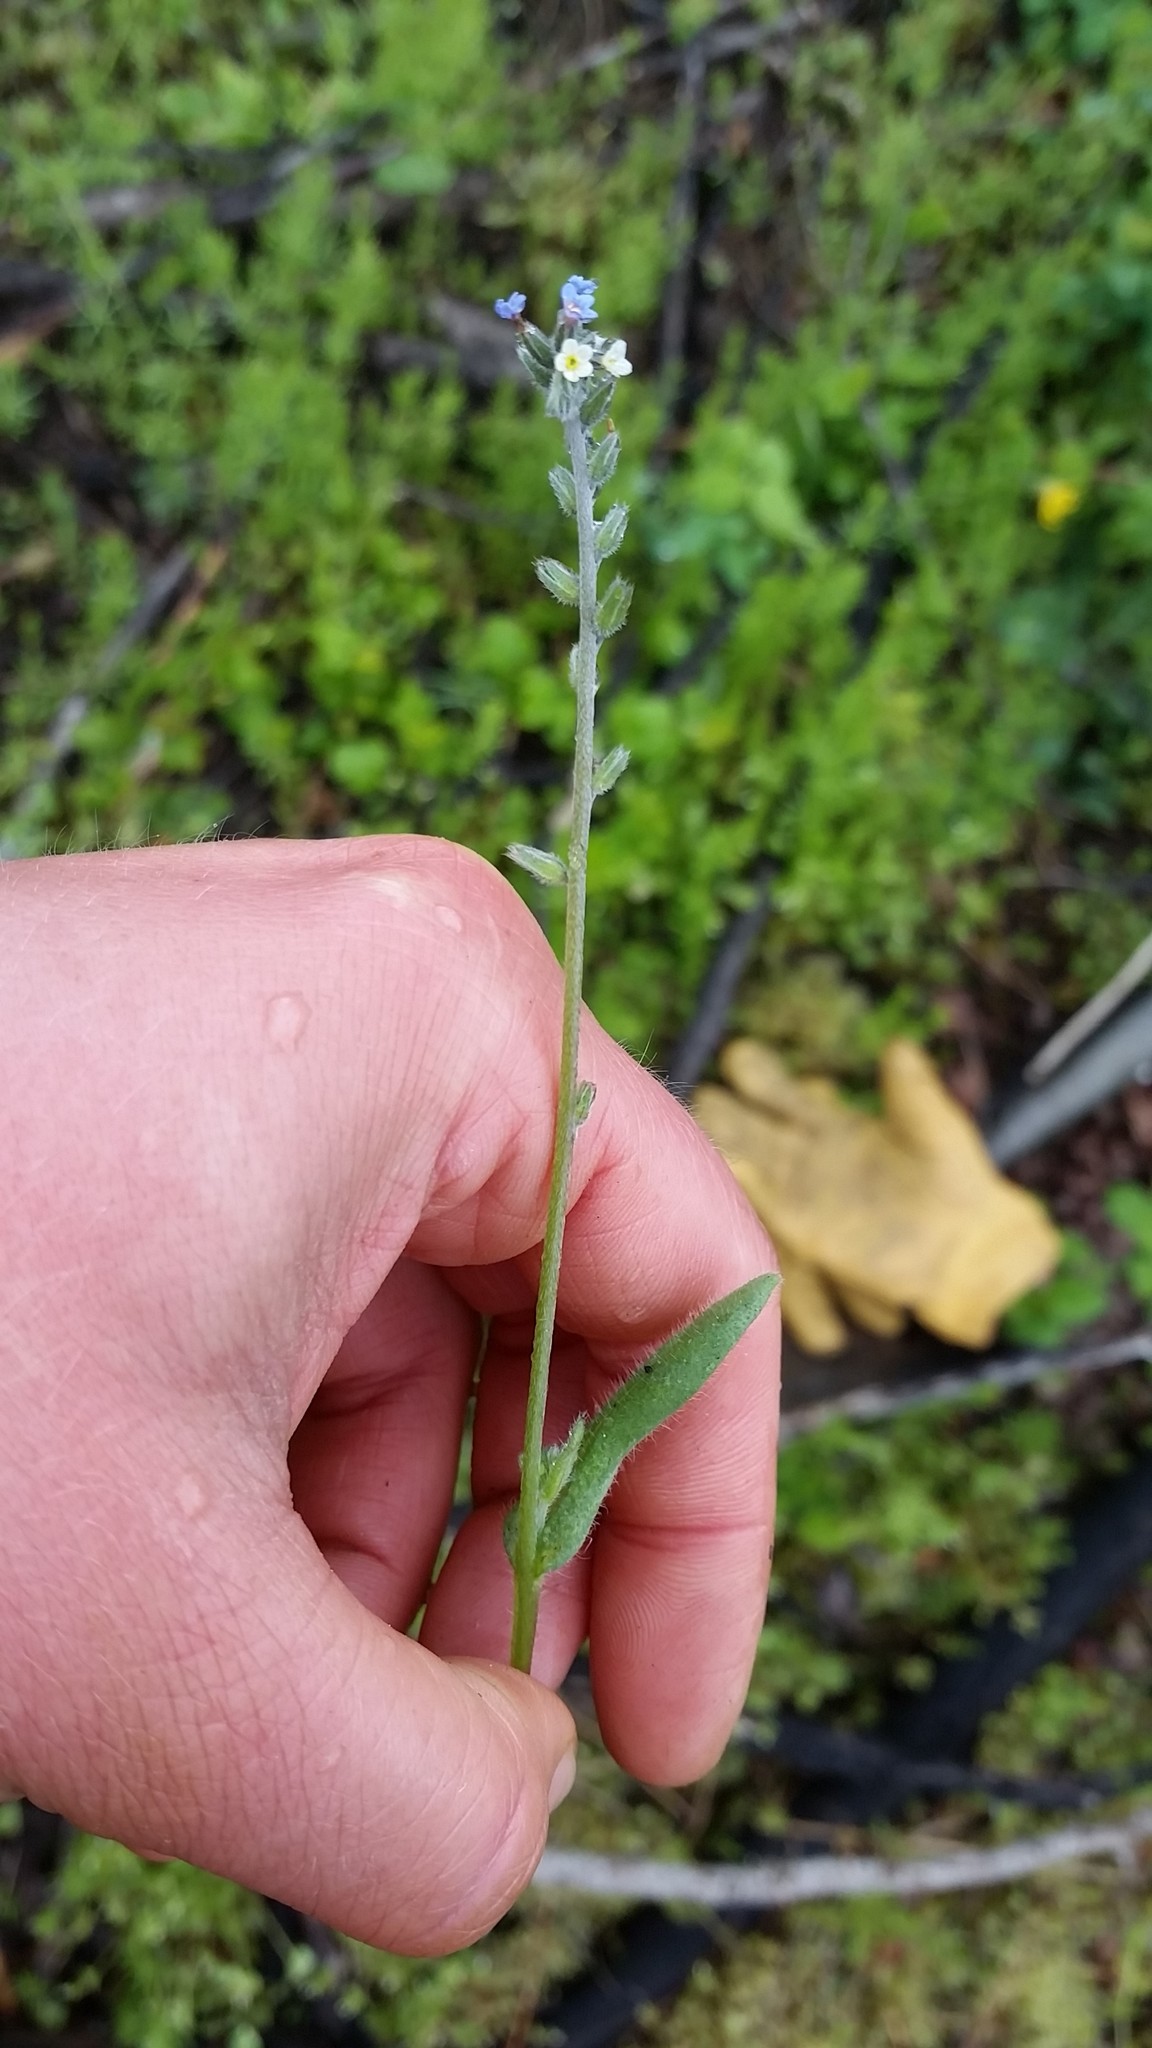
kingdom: Plantae
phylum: Tracheophyta
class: Magnoliopsida
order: Boraginales
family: Boraginaceae
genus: Myosotis
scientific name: Myosotis discolor
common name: Changing forget-me-not
